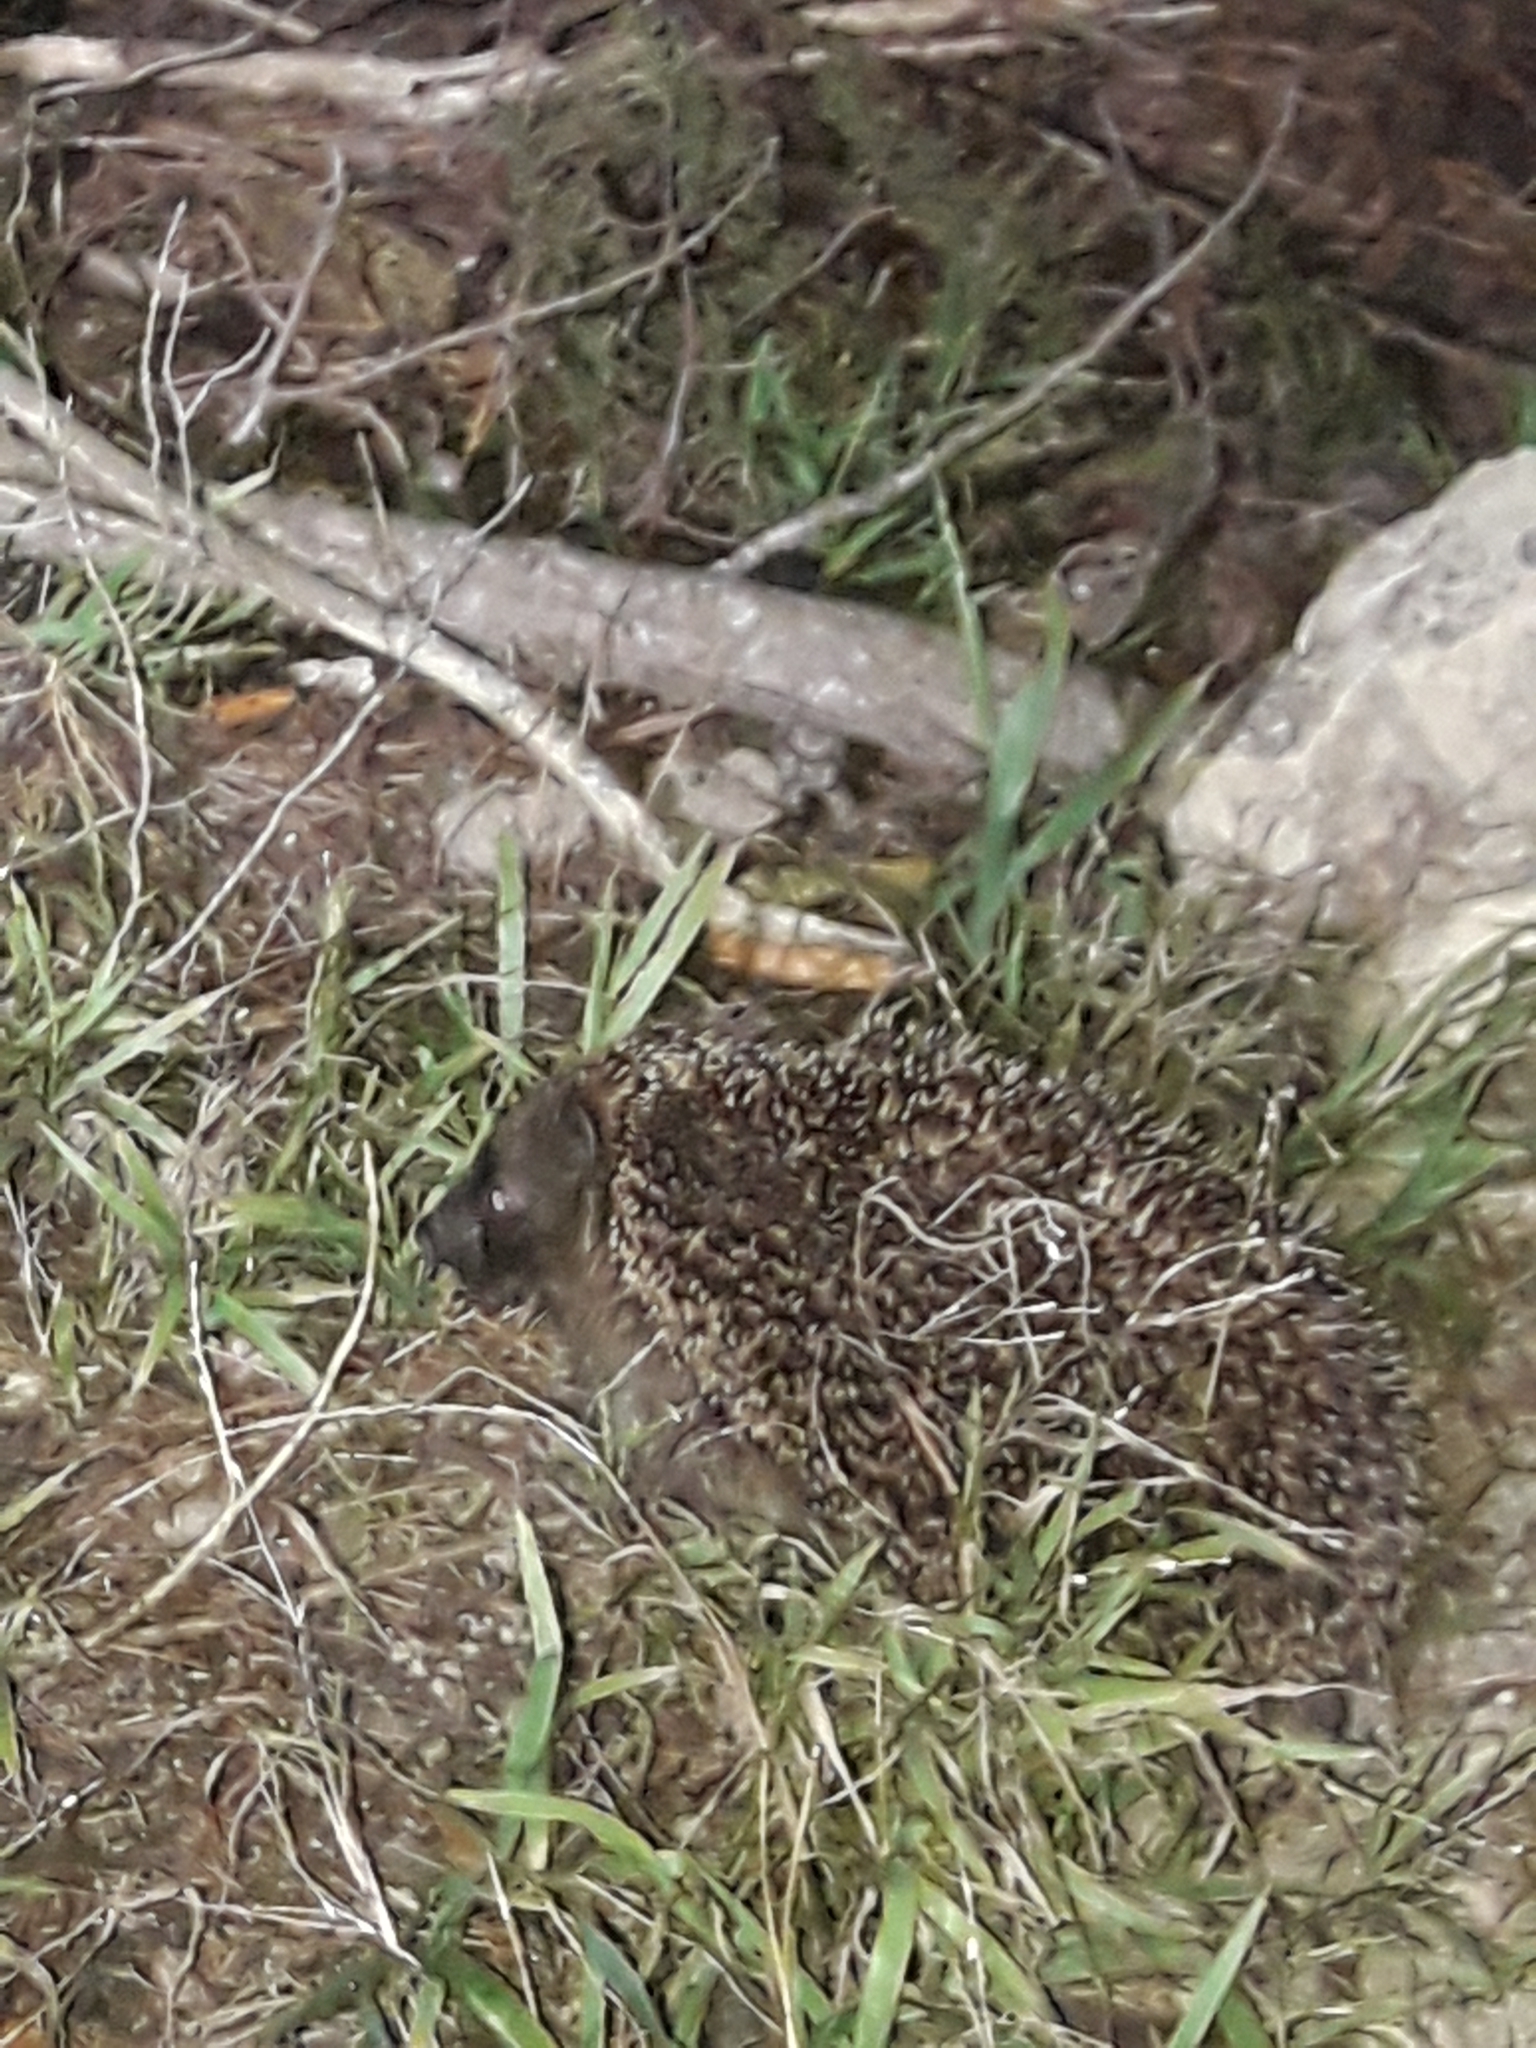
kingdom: Animalia
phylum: Chordata
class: Mammalia
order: Erinaceomorpha
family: Erinaceidae
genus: Erinaceus
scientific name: Erinaceus europaeus
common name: West european hedgehog
